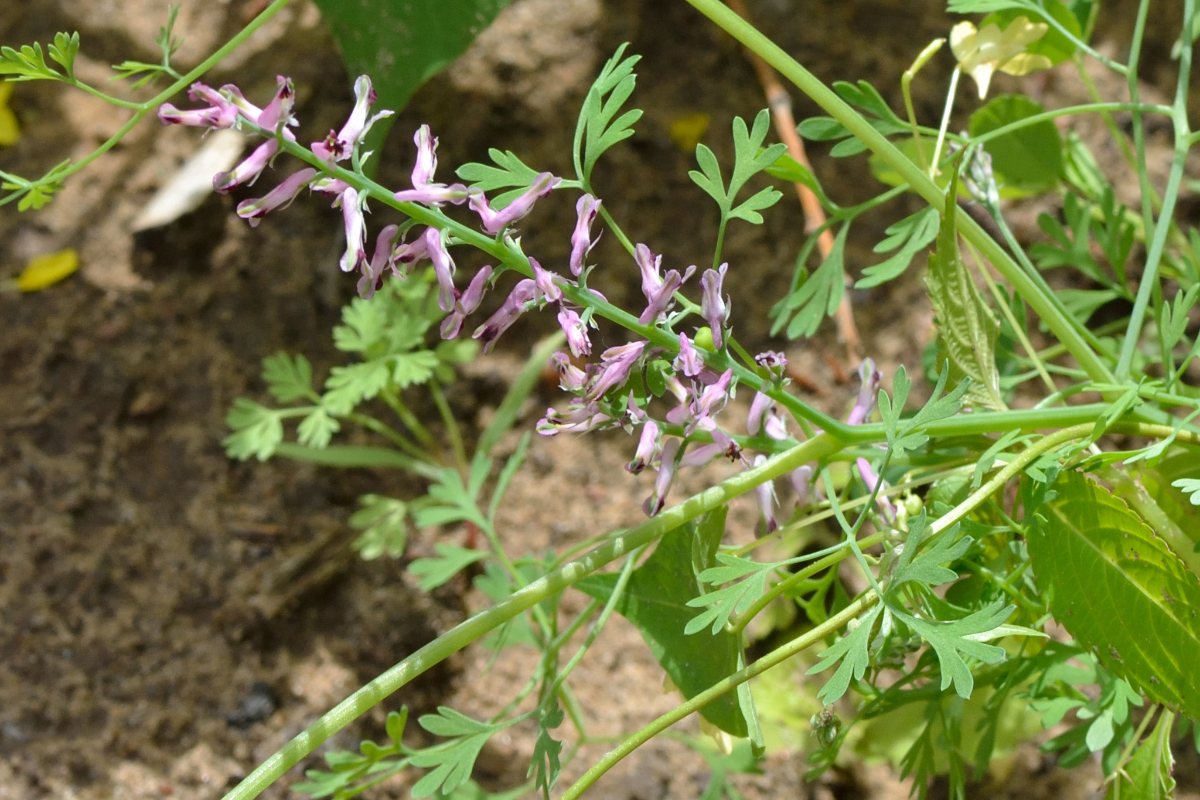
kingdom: Plantae
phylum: Tracheophyta
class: Magnoliopsida
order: Ranunculales
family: Papaveraceae
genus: Fumaria
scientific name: Fumaria officinalis
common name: Common fumitory
